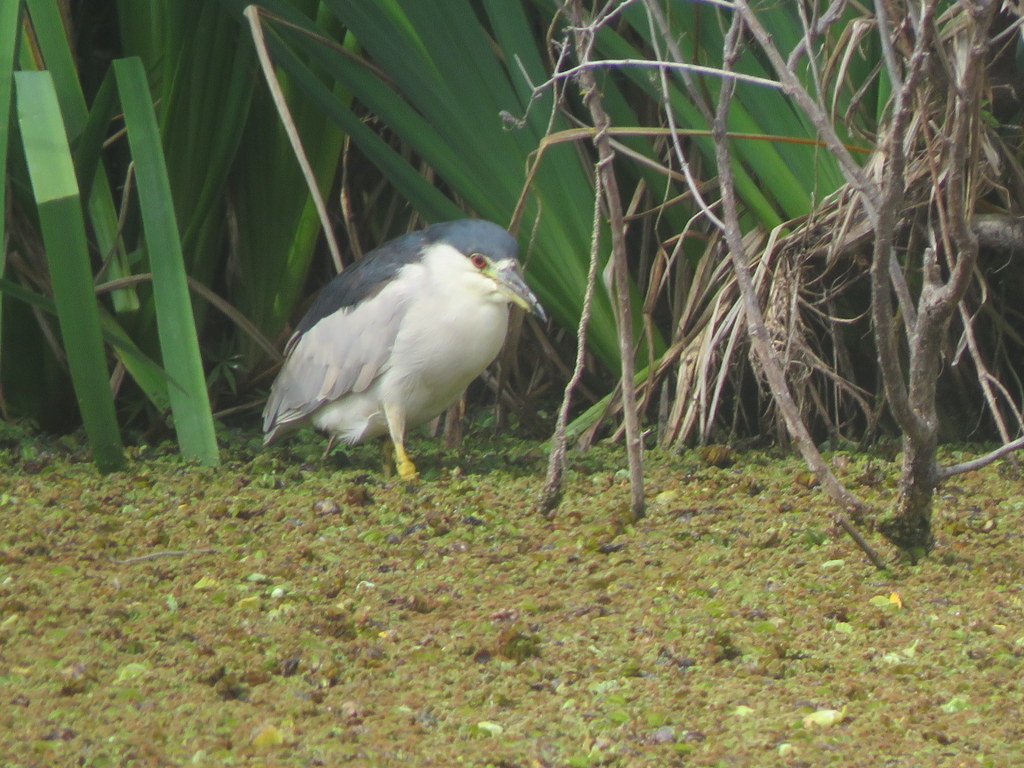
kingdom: Animalia
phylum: Chordata
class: Aves
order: Pelecaniformes
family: Ardeidae
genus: Nycticorax
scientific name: Nycticorax nycticorax
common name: Black-crowned night heron
